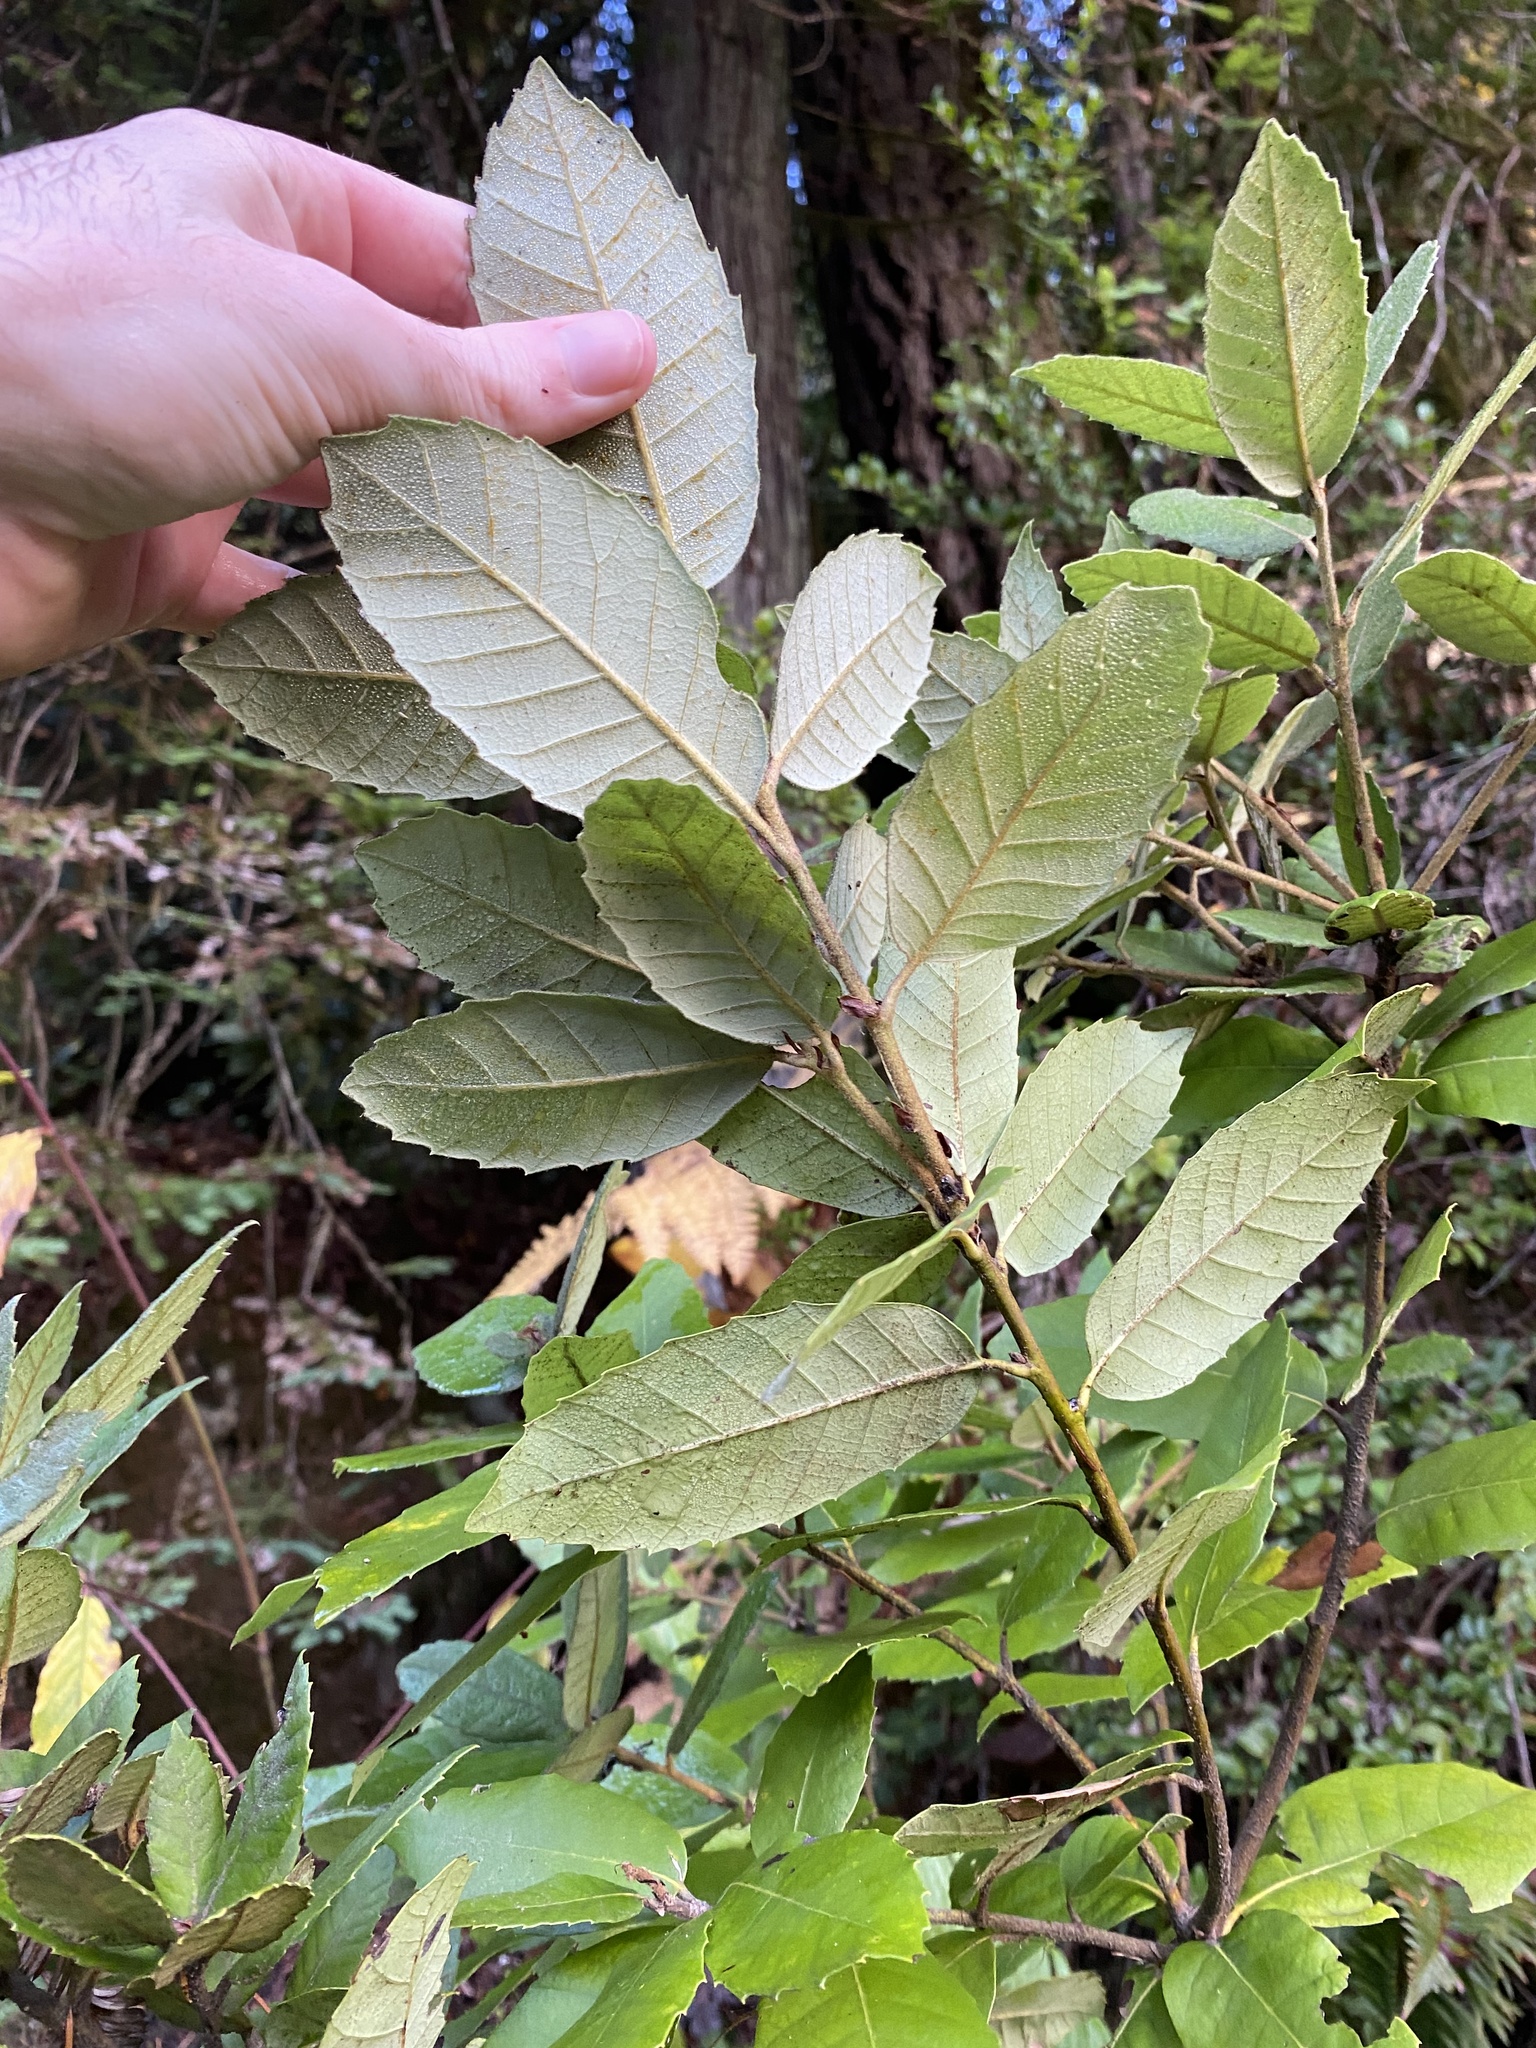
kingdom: Plantae
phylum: Tracheophyta
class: Magnoliopsida
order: Fagales
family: Fagaceae
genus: Notholithocarpus
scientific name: Notholithocarpus densiflorus
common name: Tan bark oak
